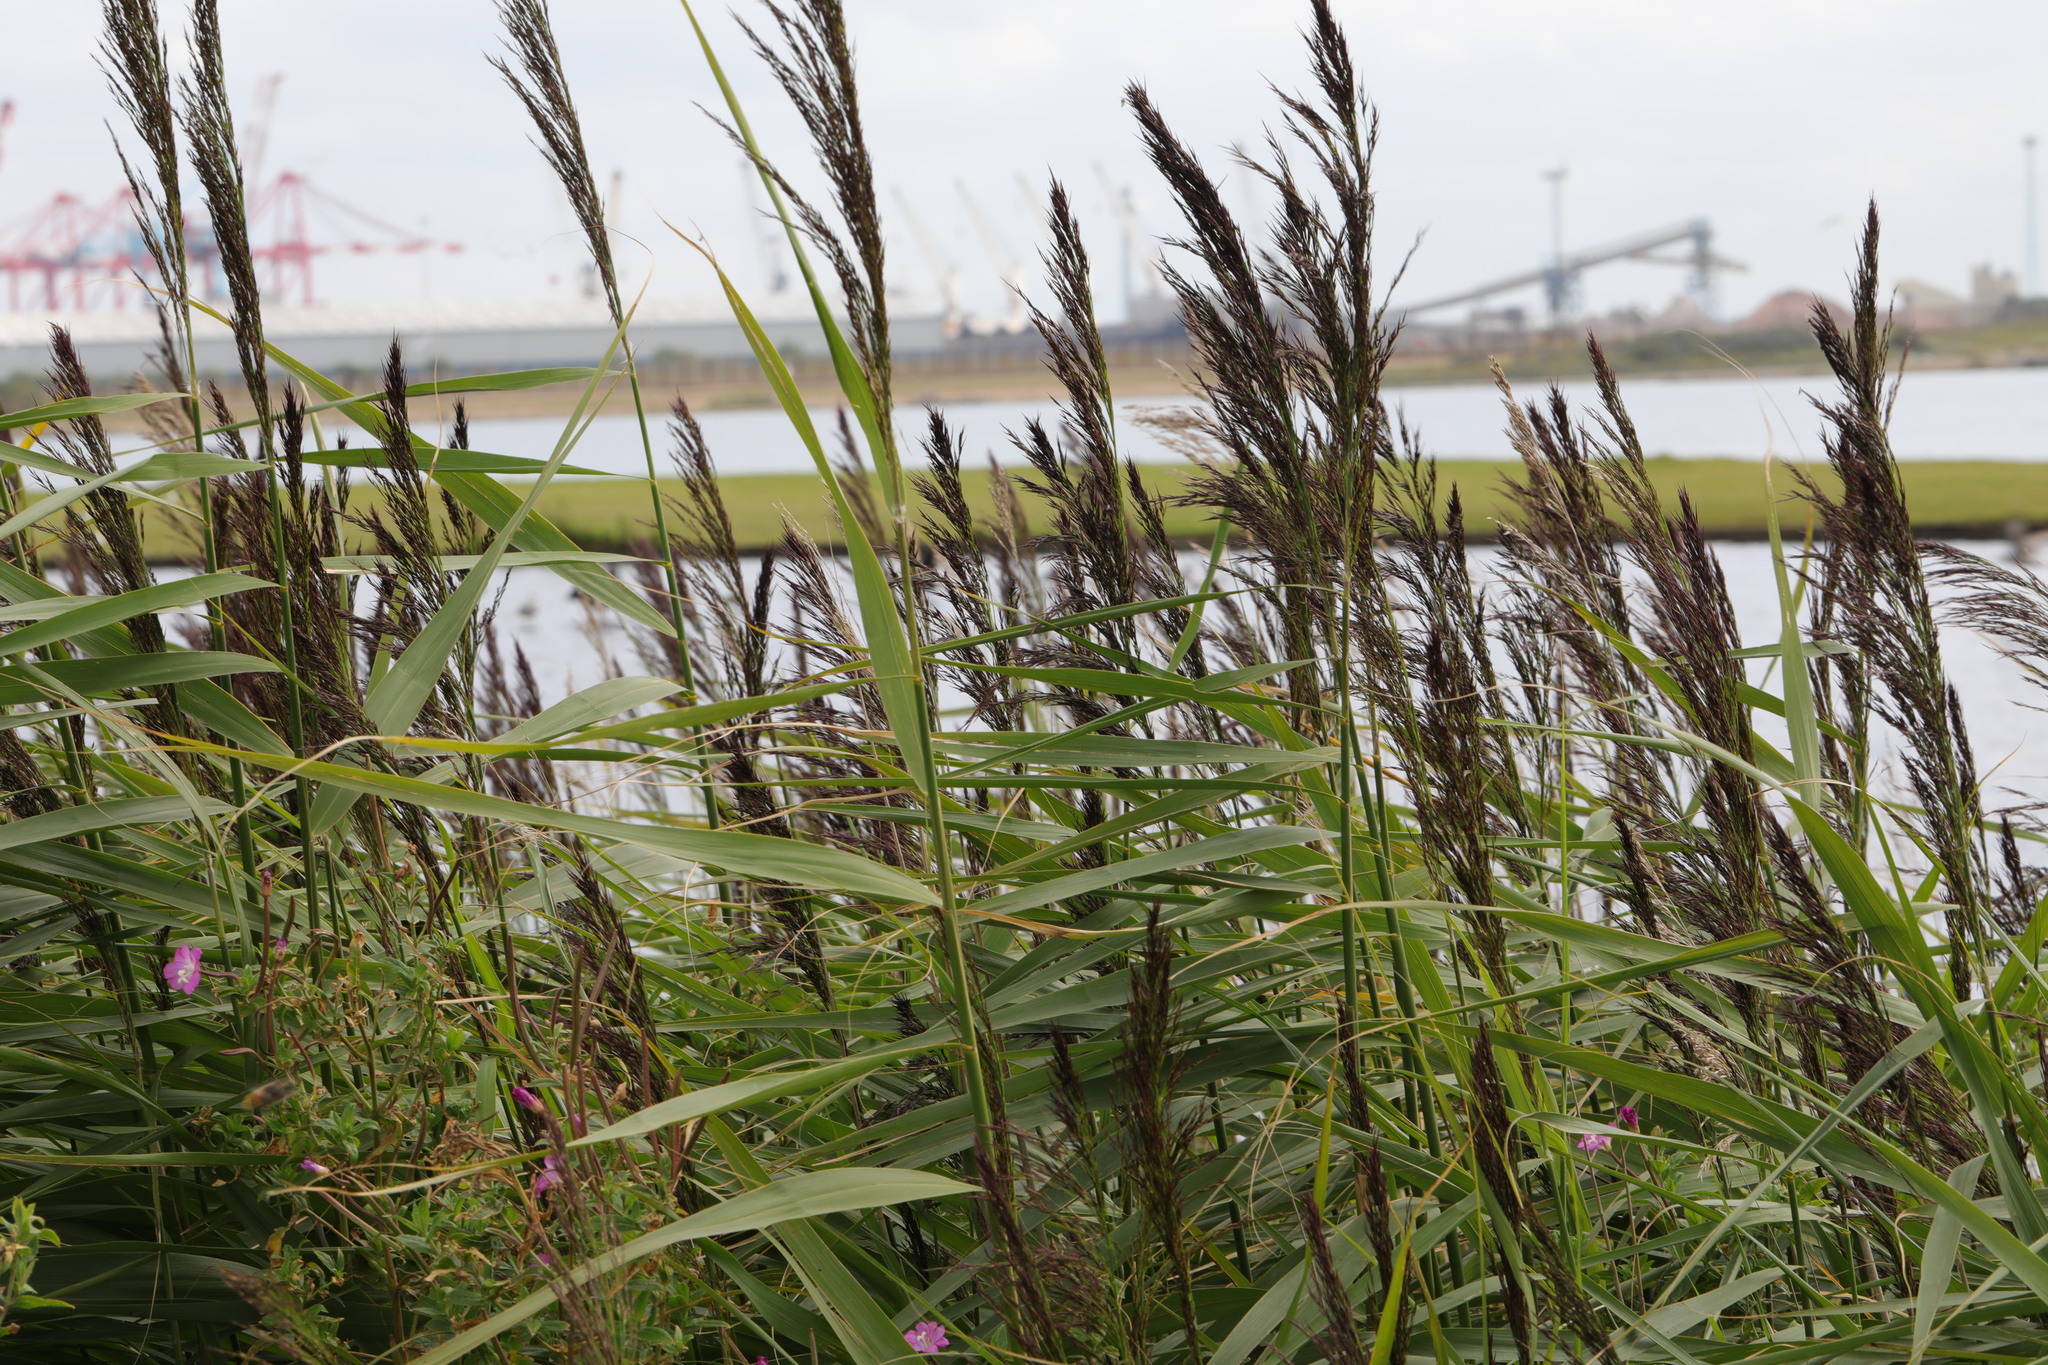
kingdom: Plantae
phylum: Tracheophyta
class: Liliopsida
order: Poales
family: Poaceae
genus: Phragmites
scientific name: Phragmites australis
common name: Common reed
